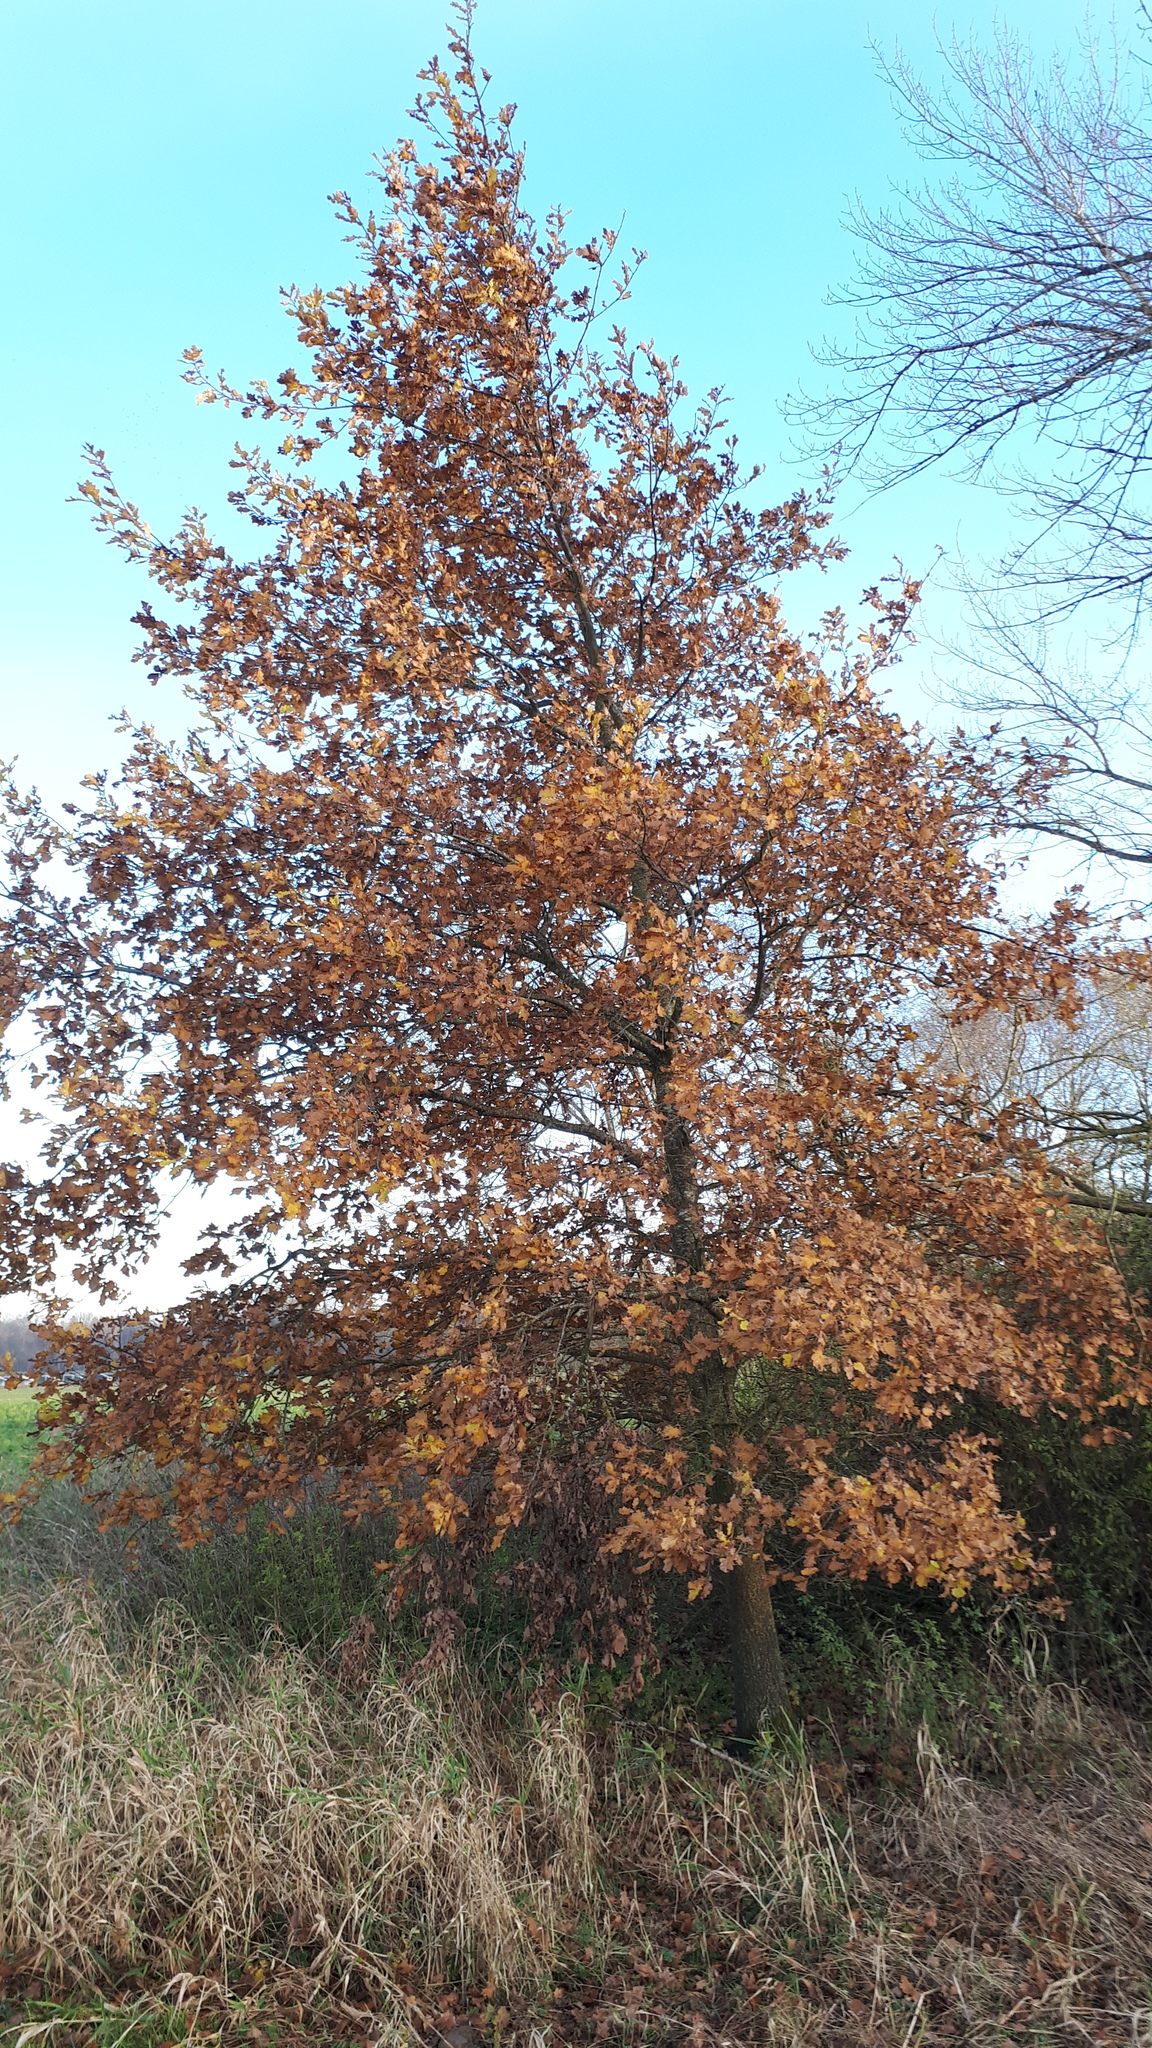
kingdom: Plantae
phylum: Tracheophyta
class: Magnoliopsida
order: Fagales
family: Fagaceae
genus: Quercus
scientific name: Quercus robur
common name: Pedunculate oak
